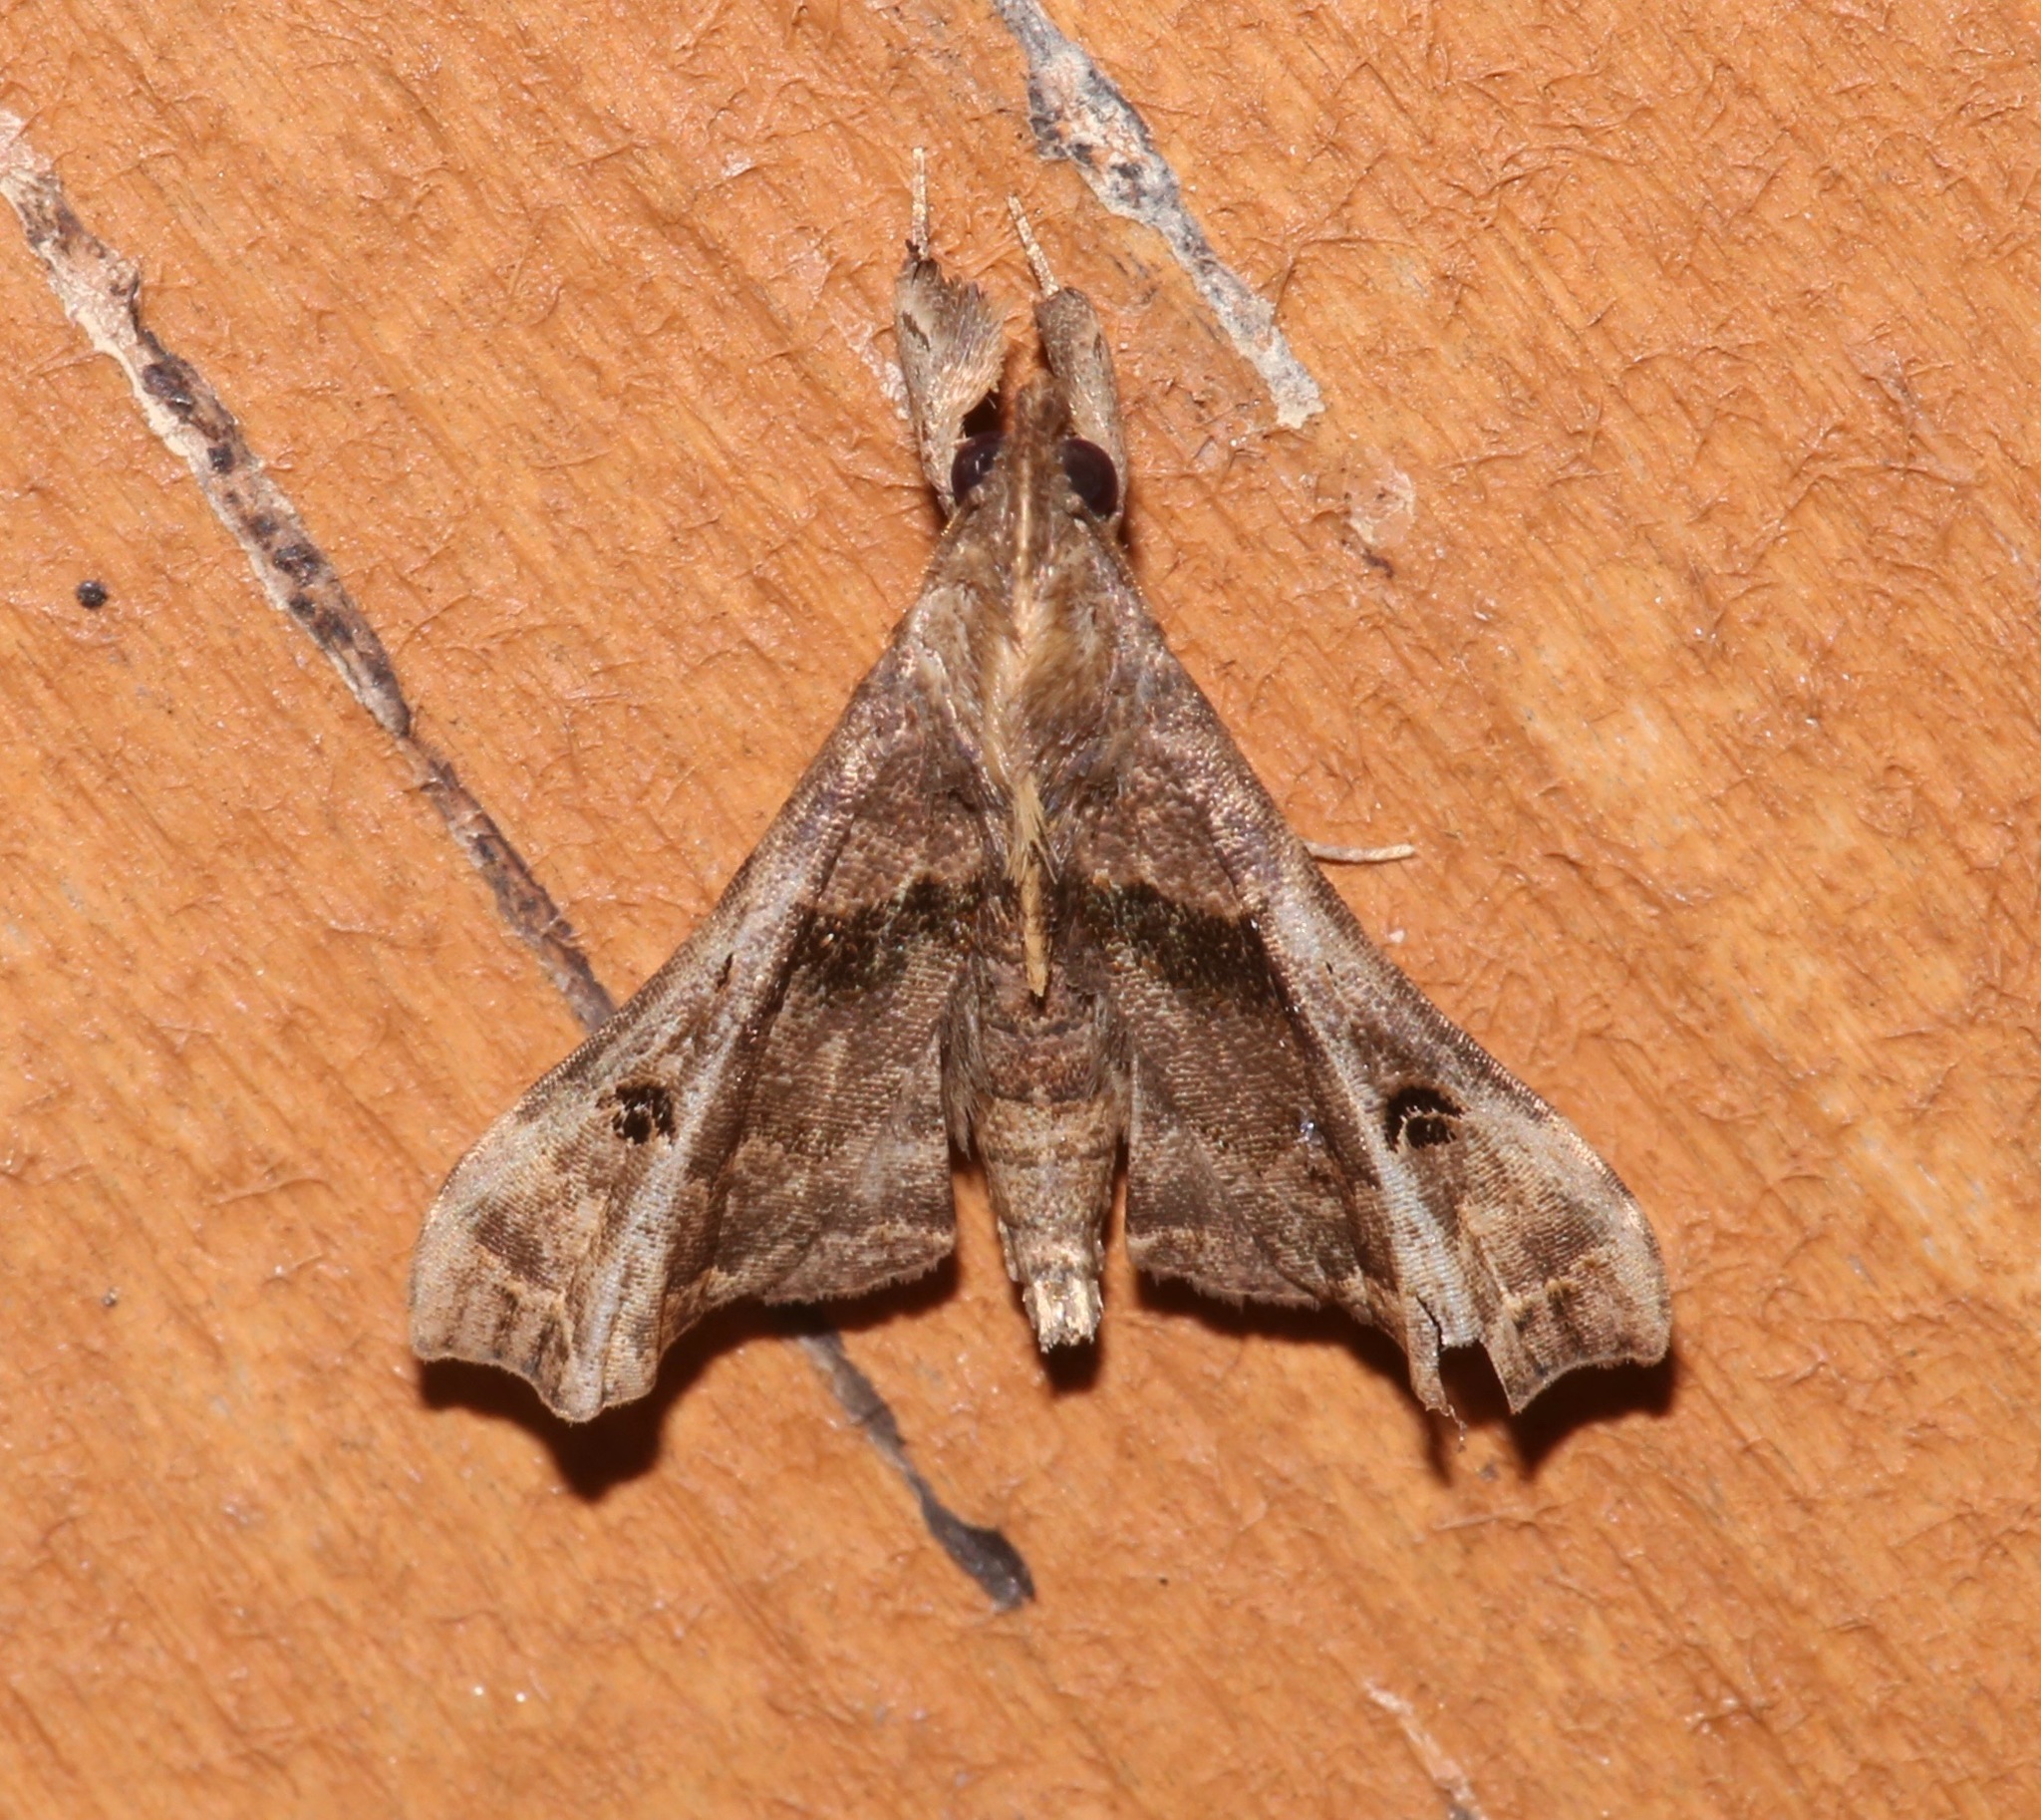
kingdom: Animalia
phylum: Arthropoda
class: Insecta
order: Lepidoptera
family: Erebidae
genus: Palthis
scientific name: Palthis asopialis
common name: Faint-spotted palthis moth
